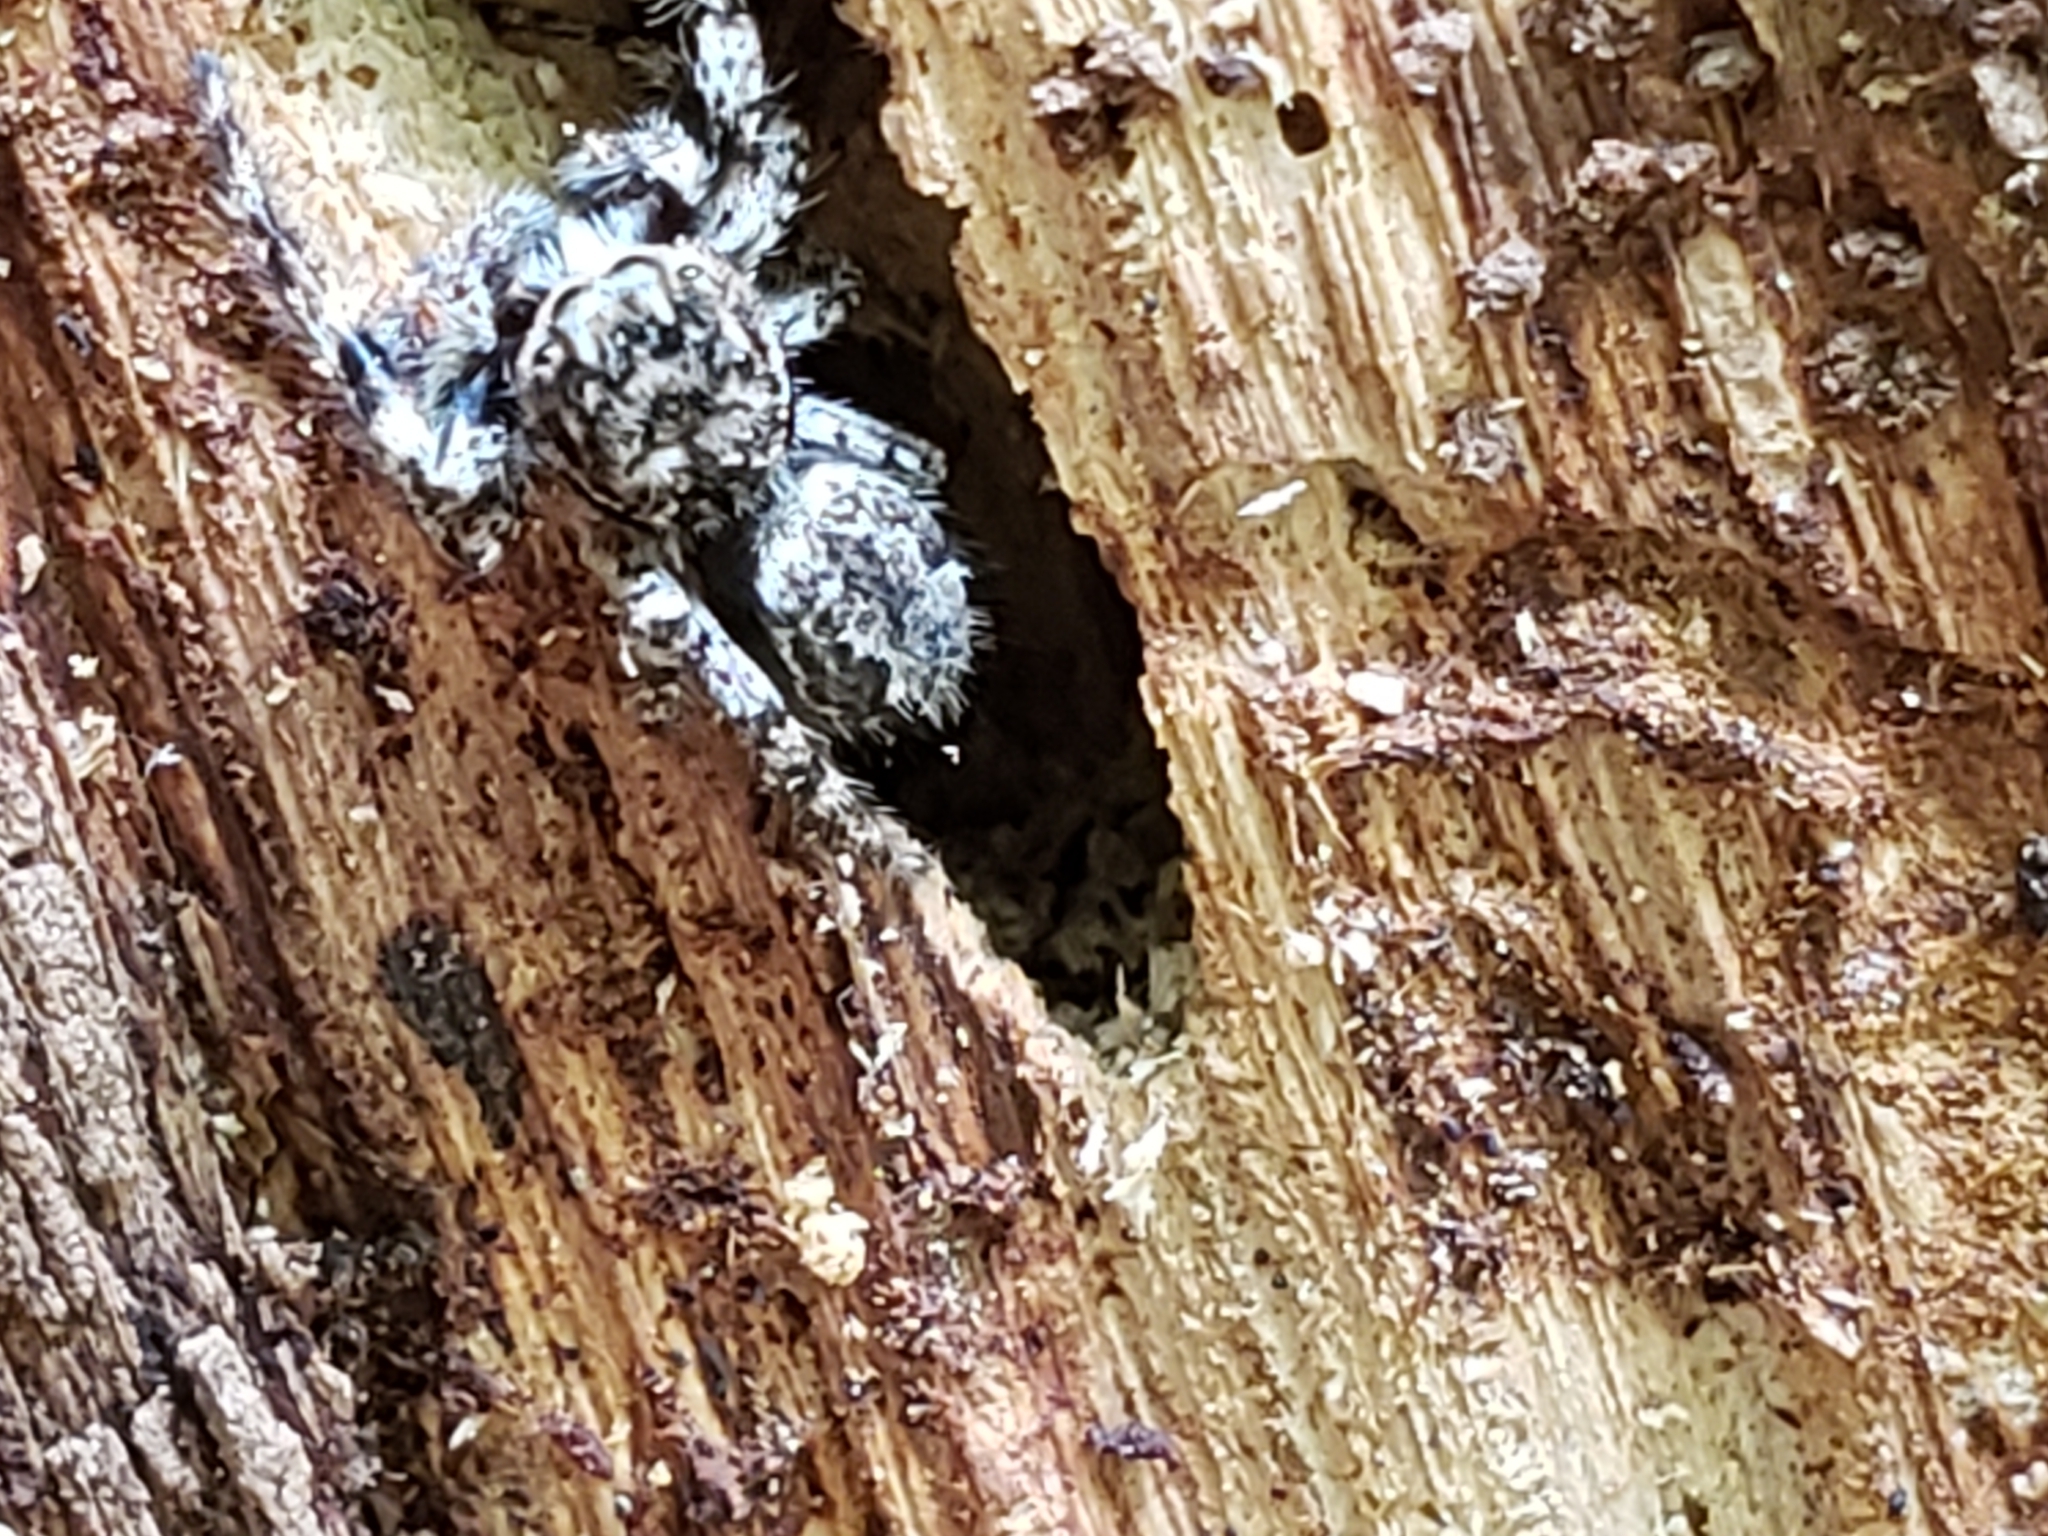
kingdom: Animalia
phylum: Arthropoda
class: Arachnida
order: Araneae
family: Salticidae
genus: Platycryptus
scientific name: Platycryptus undatus
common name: Tan jumping spider
